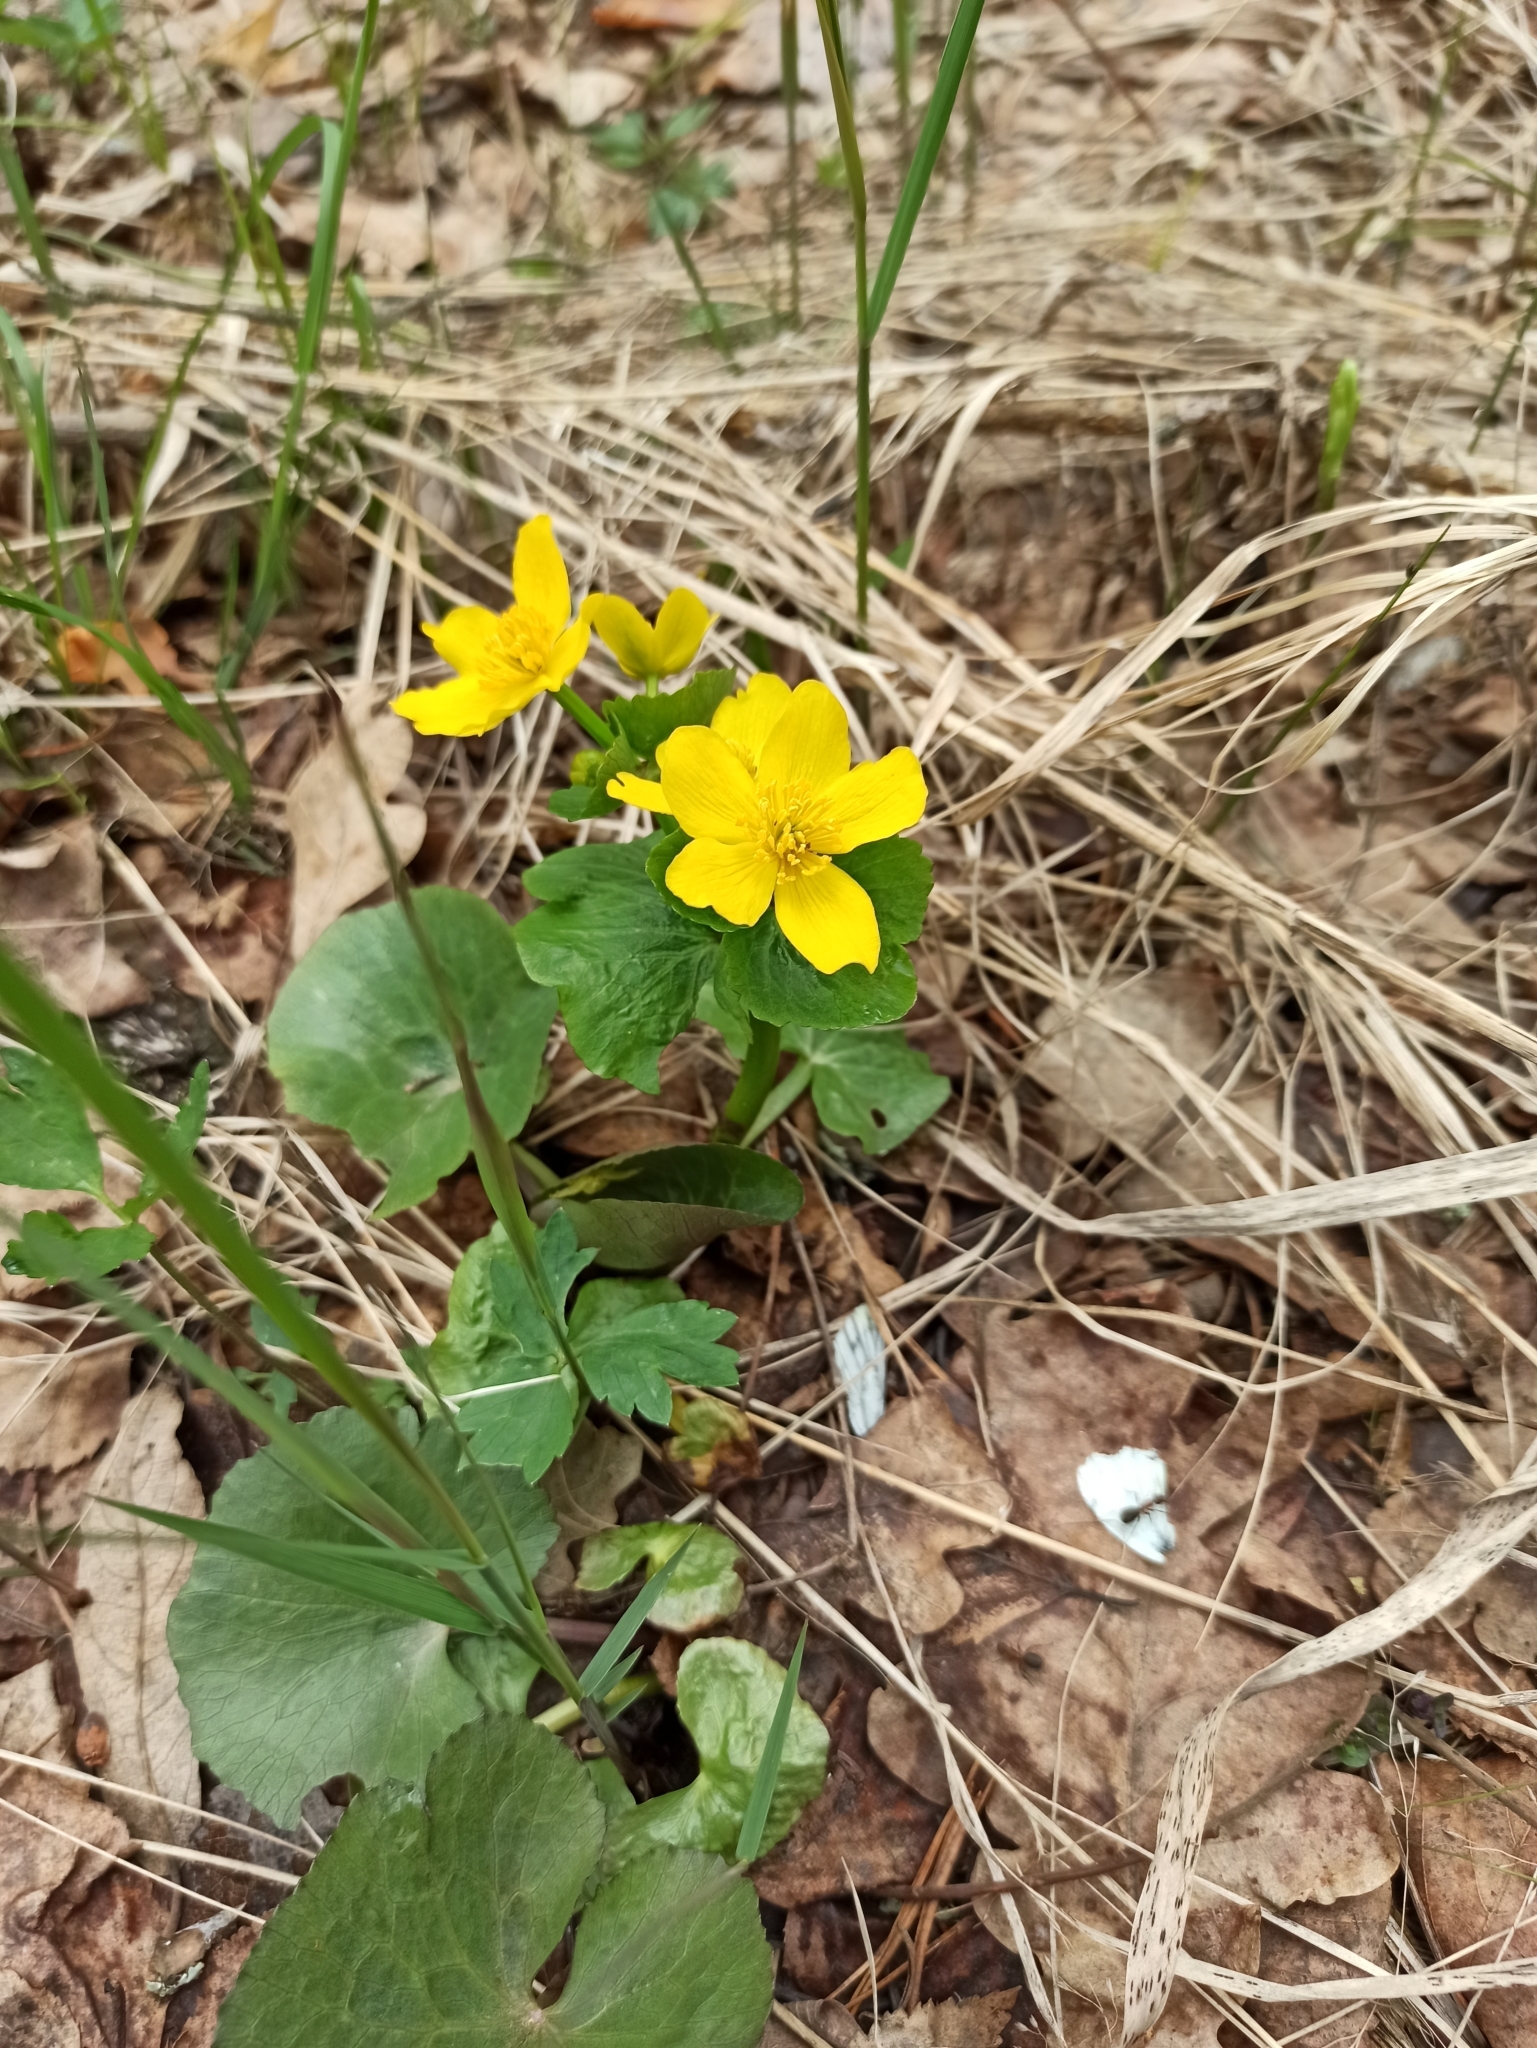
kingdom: Plantae
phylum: Tracheophyta
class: Magnoliopsida
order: Ranunculales
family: Ranunculaceae
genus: Caltha
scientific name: Caltha palustris
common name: Marsh marigold
